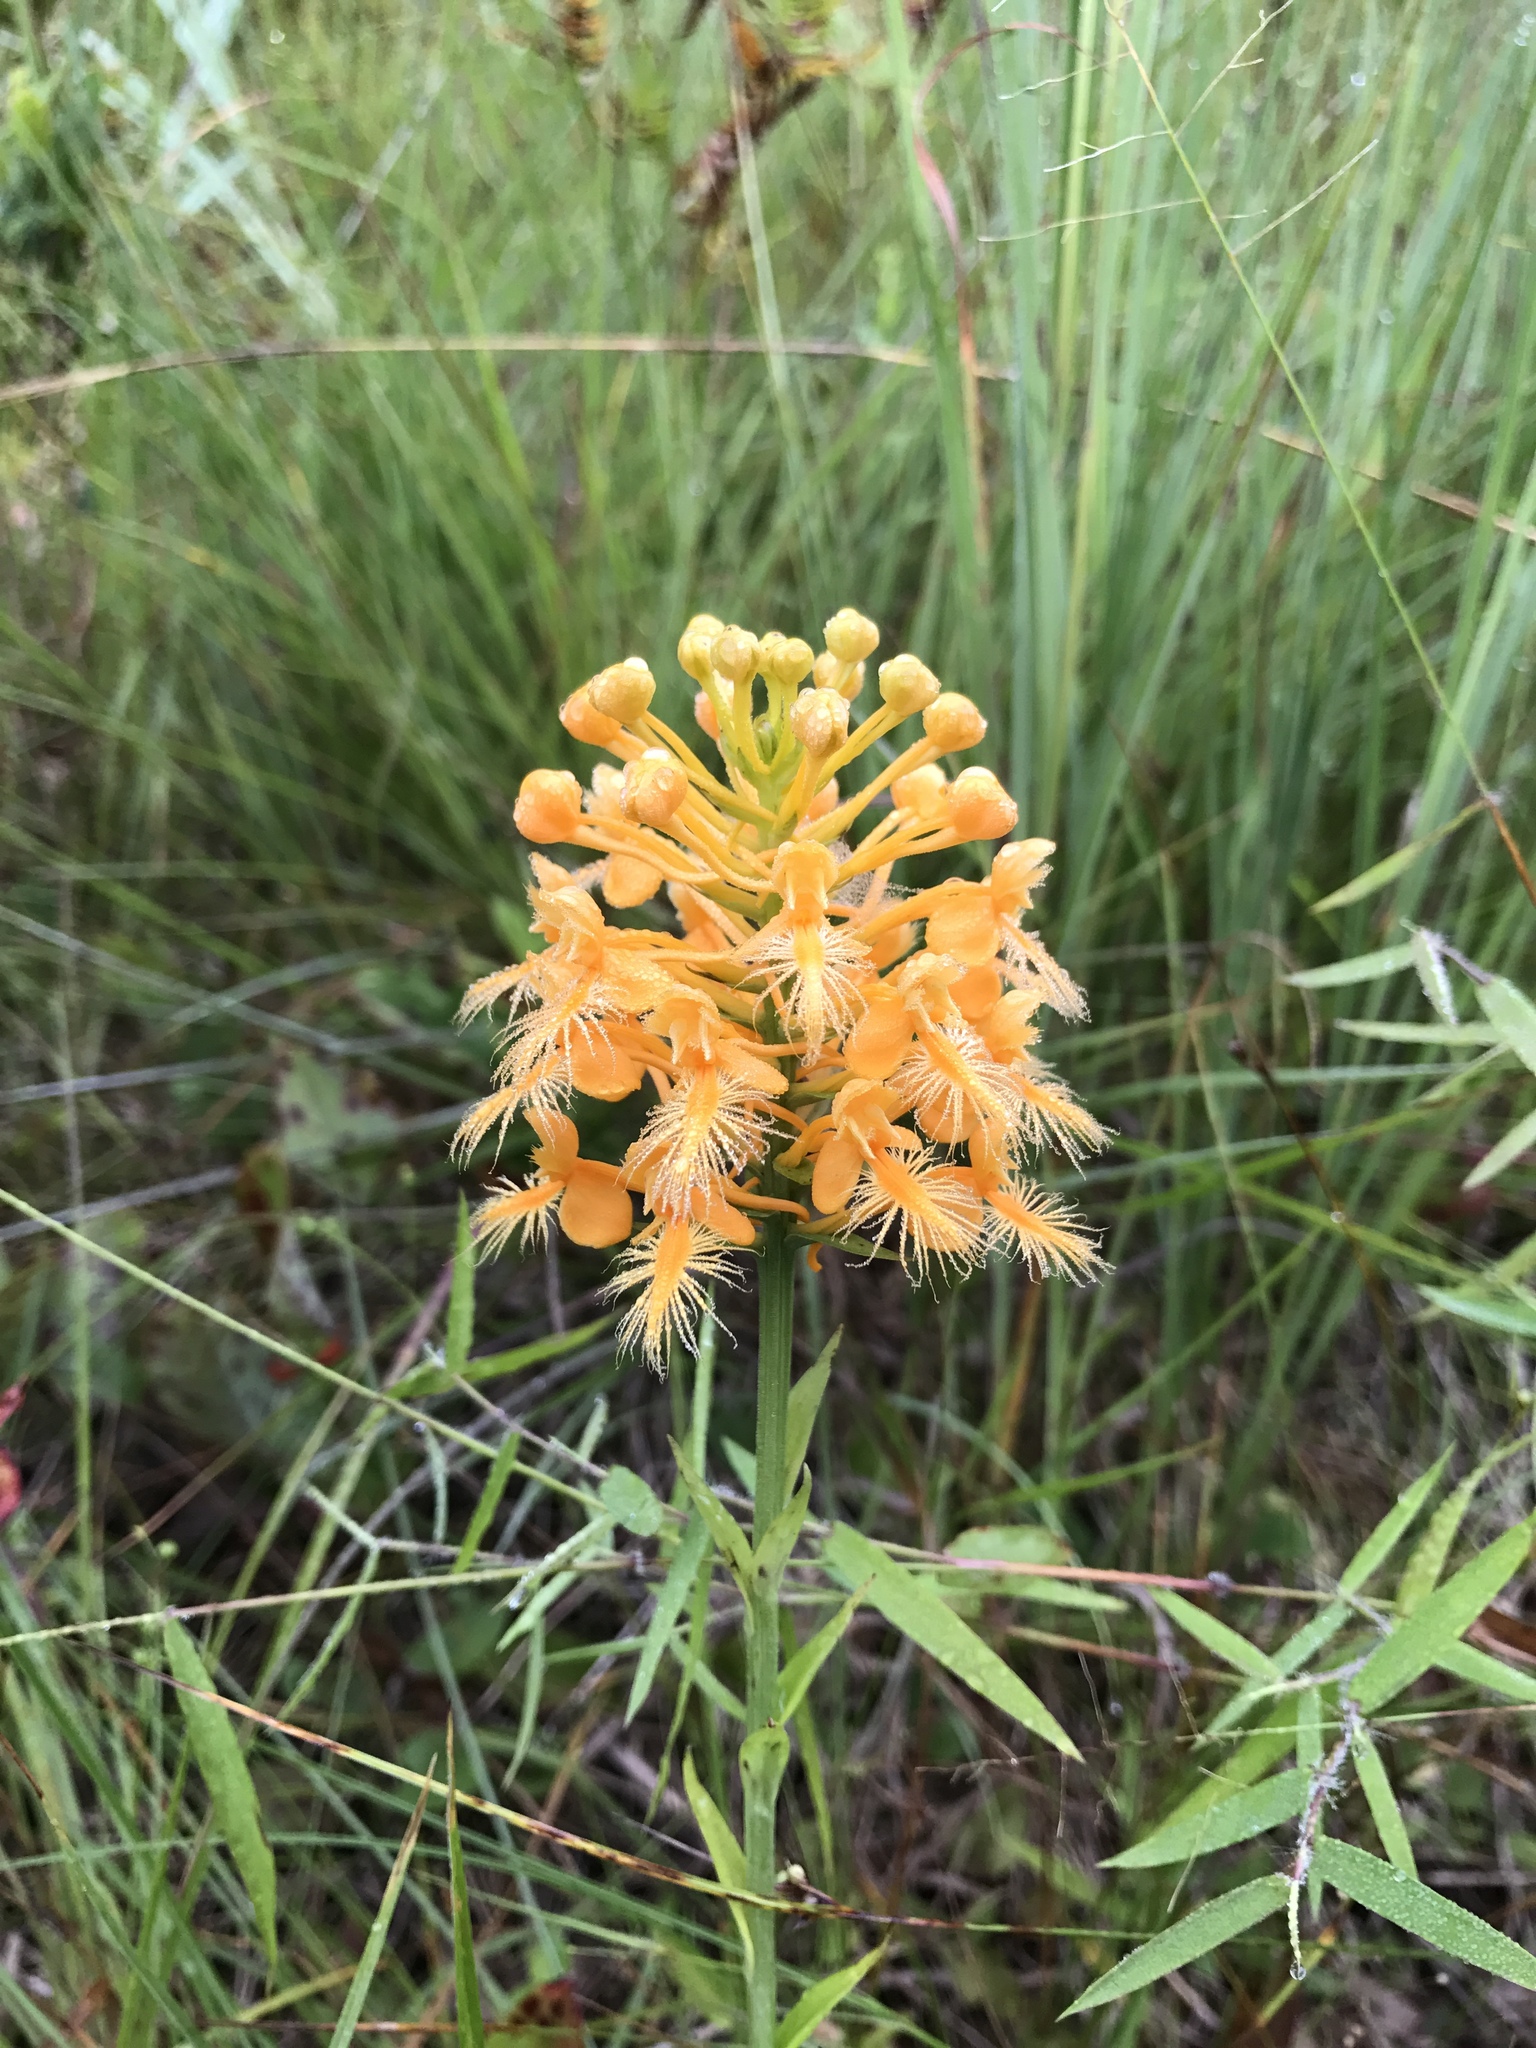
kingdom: Plantae
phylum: Tracheophyta
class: Liliopsida
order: Asparagales
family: Orchidaceae
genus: Platanthera
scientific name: Platanthera ciliaris
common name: Yellow fringed orchid
